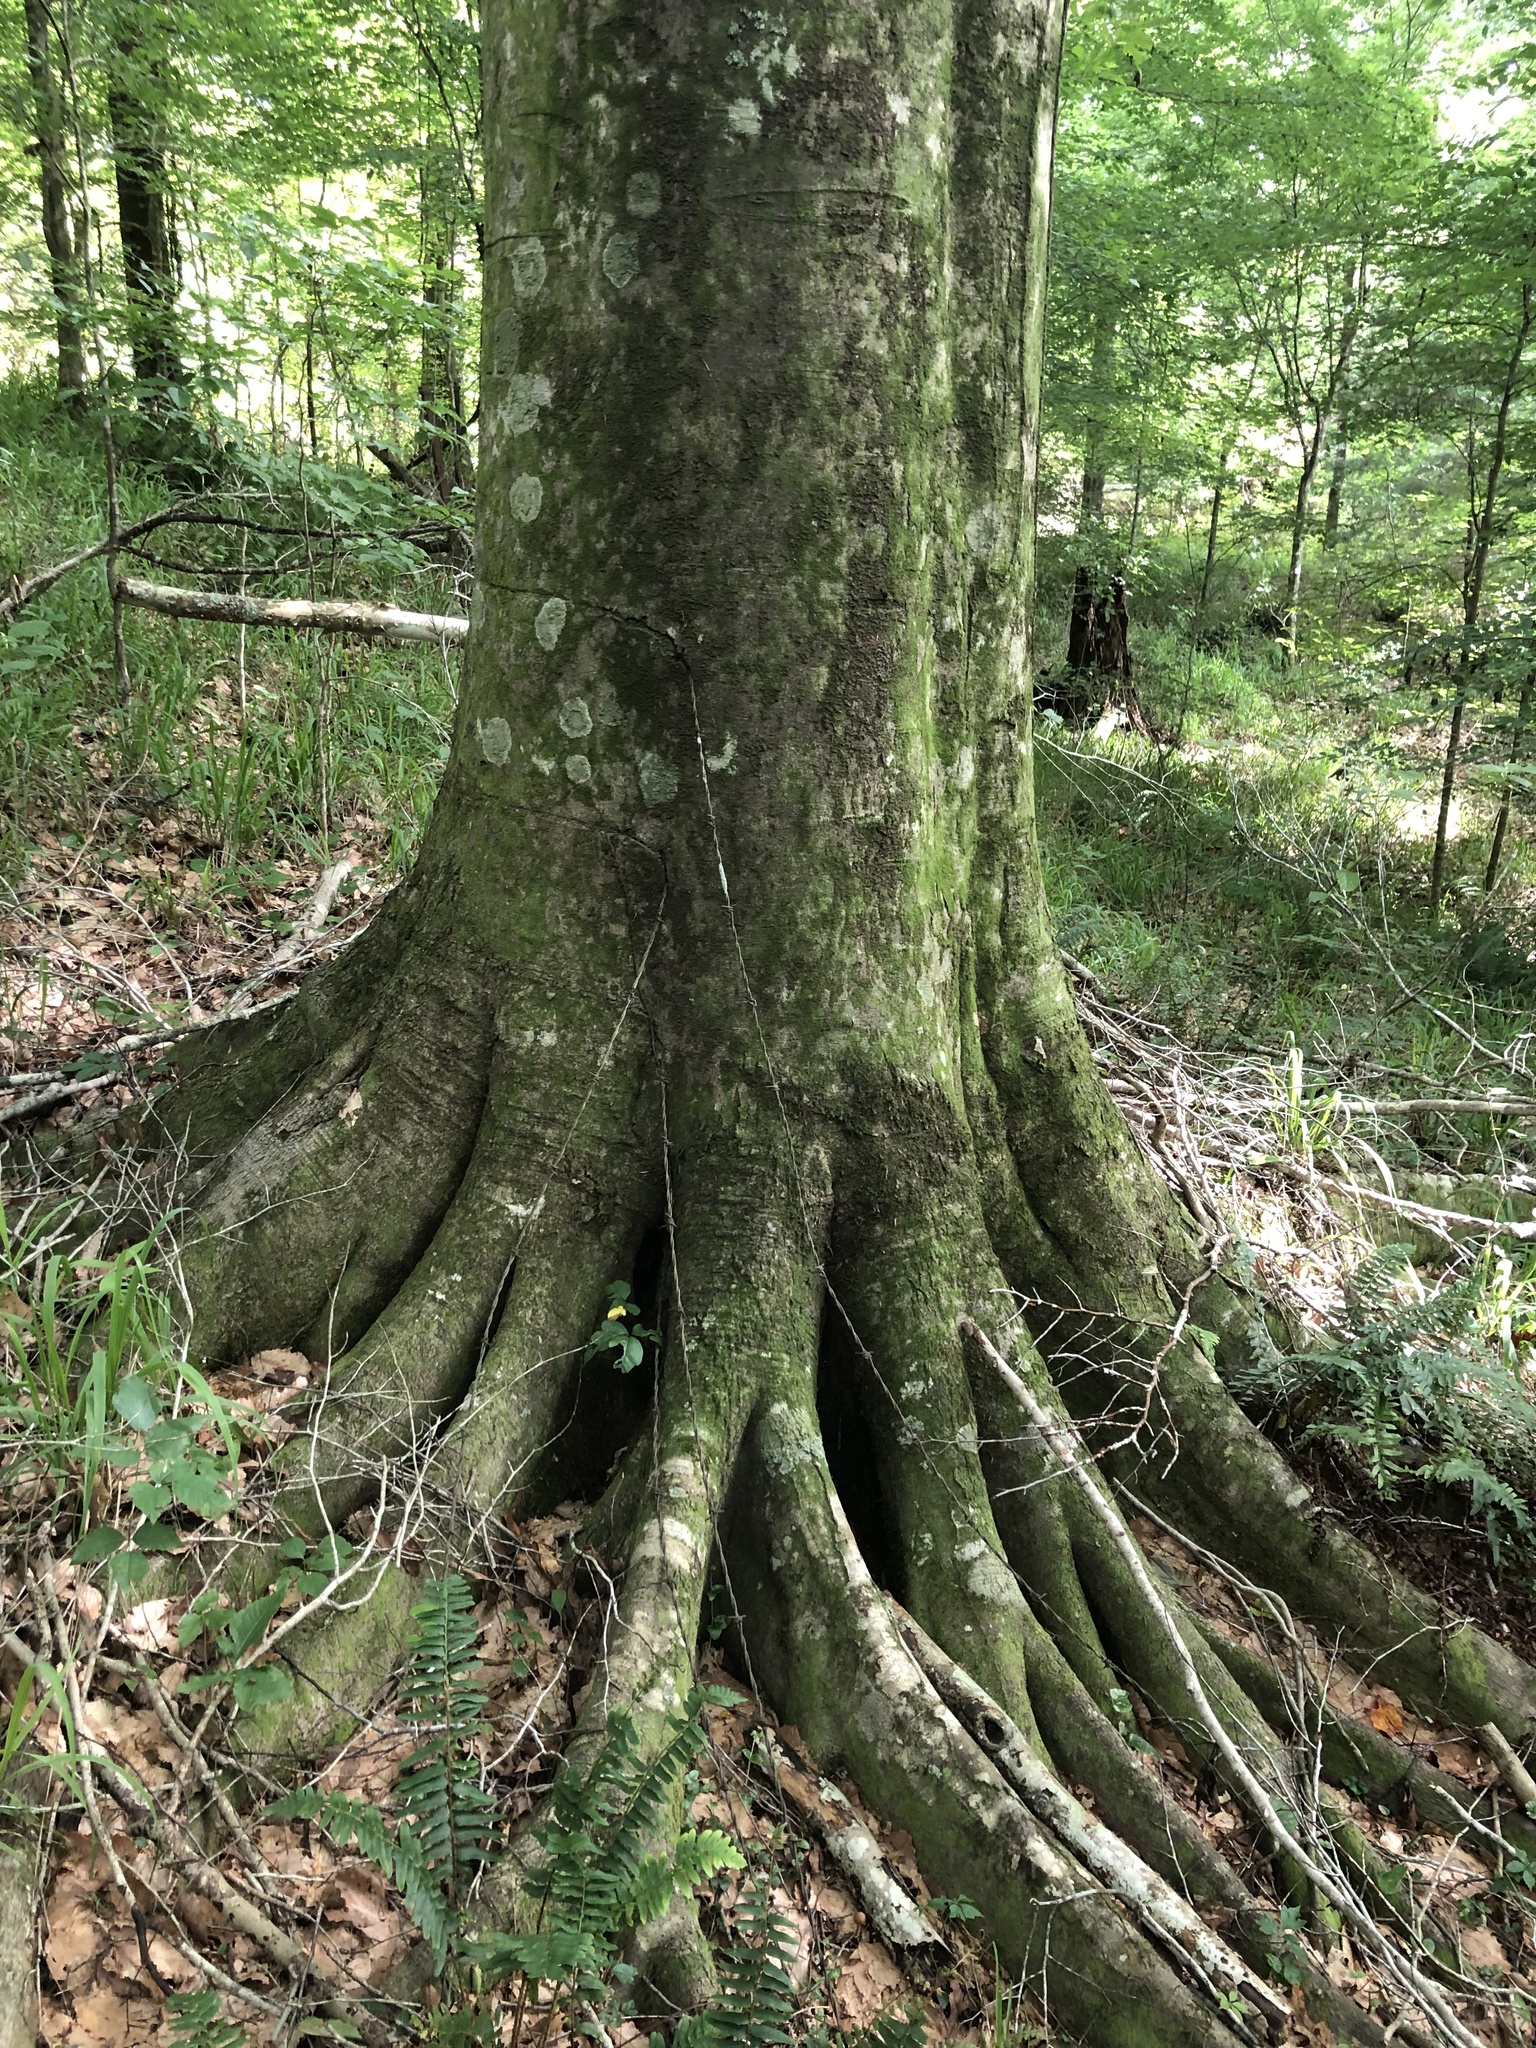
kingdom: Plantae
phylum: Tracheophyta
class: Magnoliopsida
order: Fagales
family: Fagaceae
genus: Fagus
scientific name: Fagus grandifolia
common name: American beech
